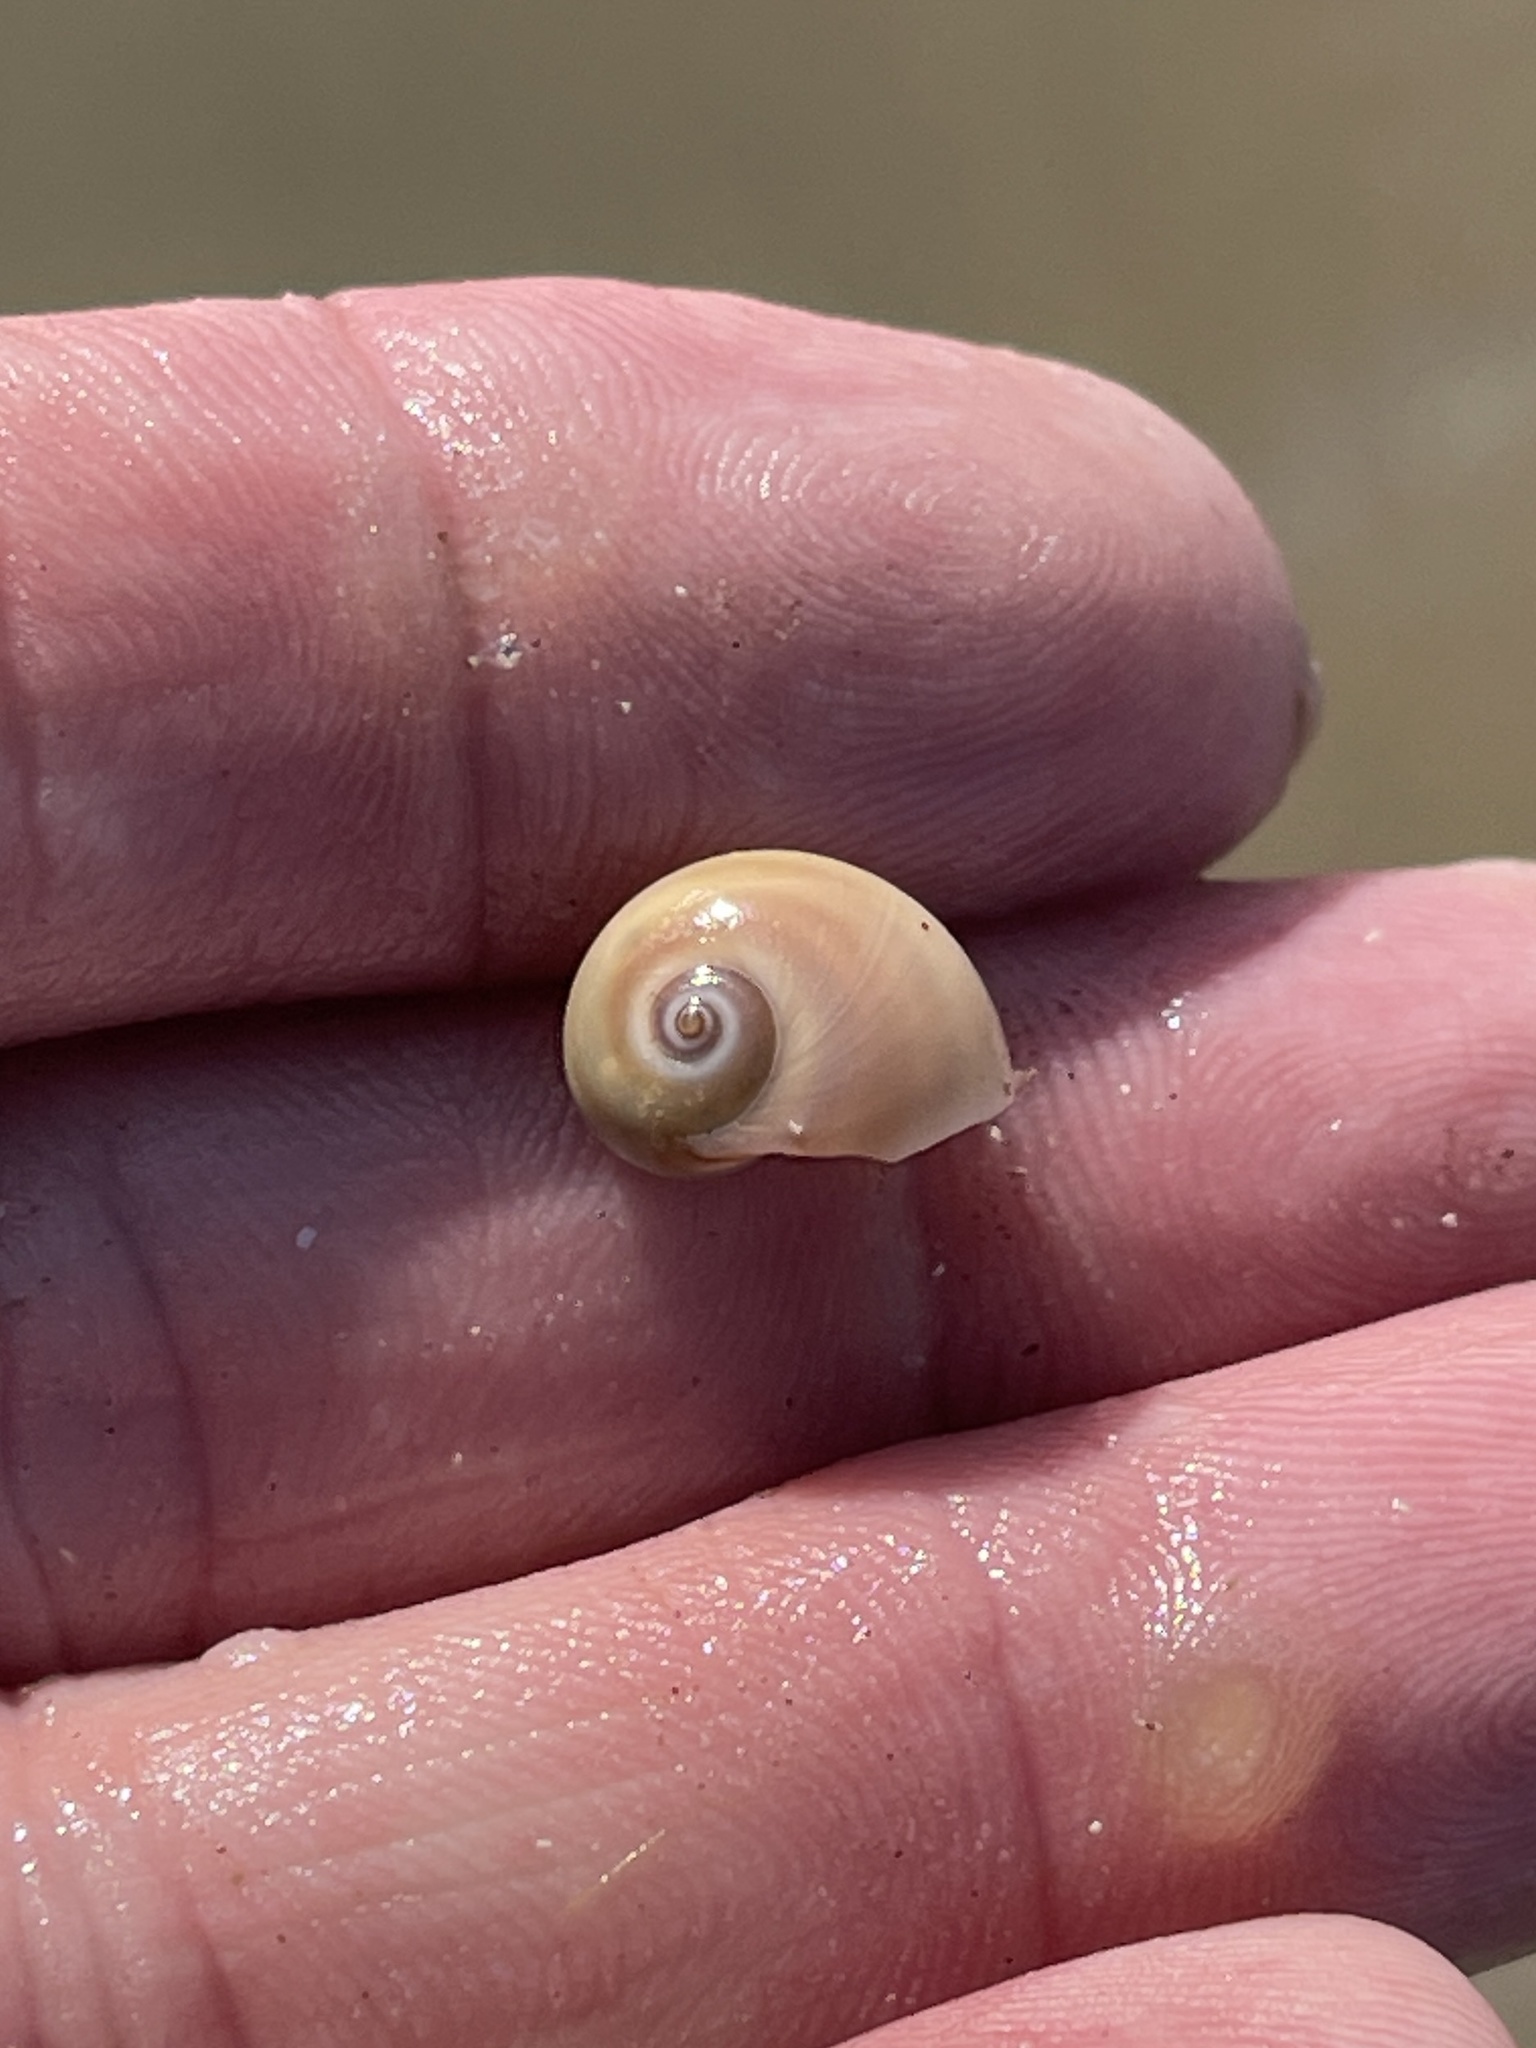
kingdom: Animalia
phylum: Mollusca
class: Gastropoda
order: Littorinimorpha
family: Naticidae
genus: Neverita
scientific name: Neverita duplicata
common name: Lobed moonsnail
